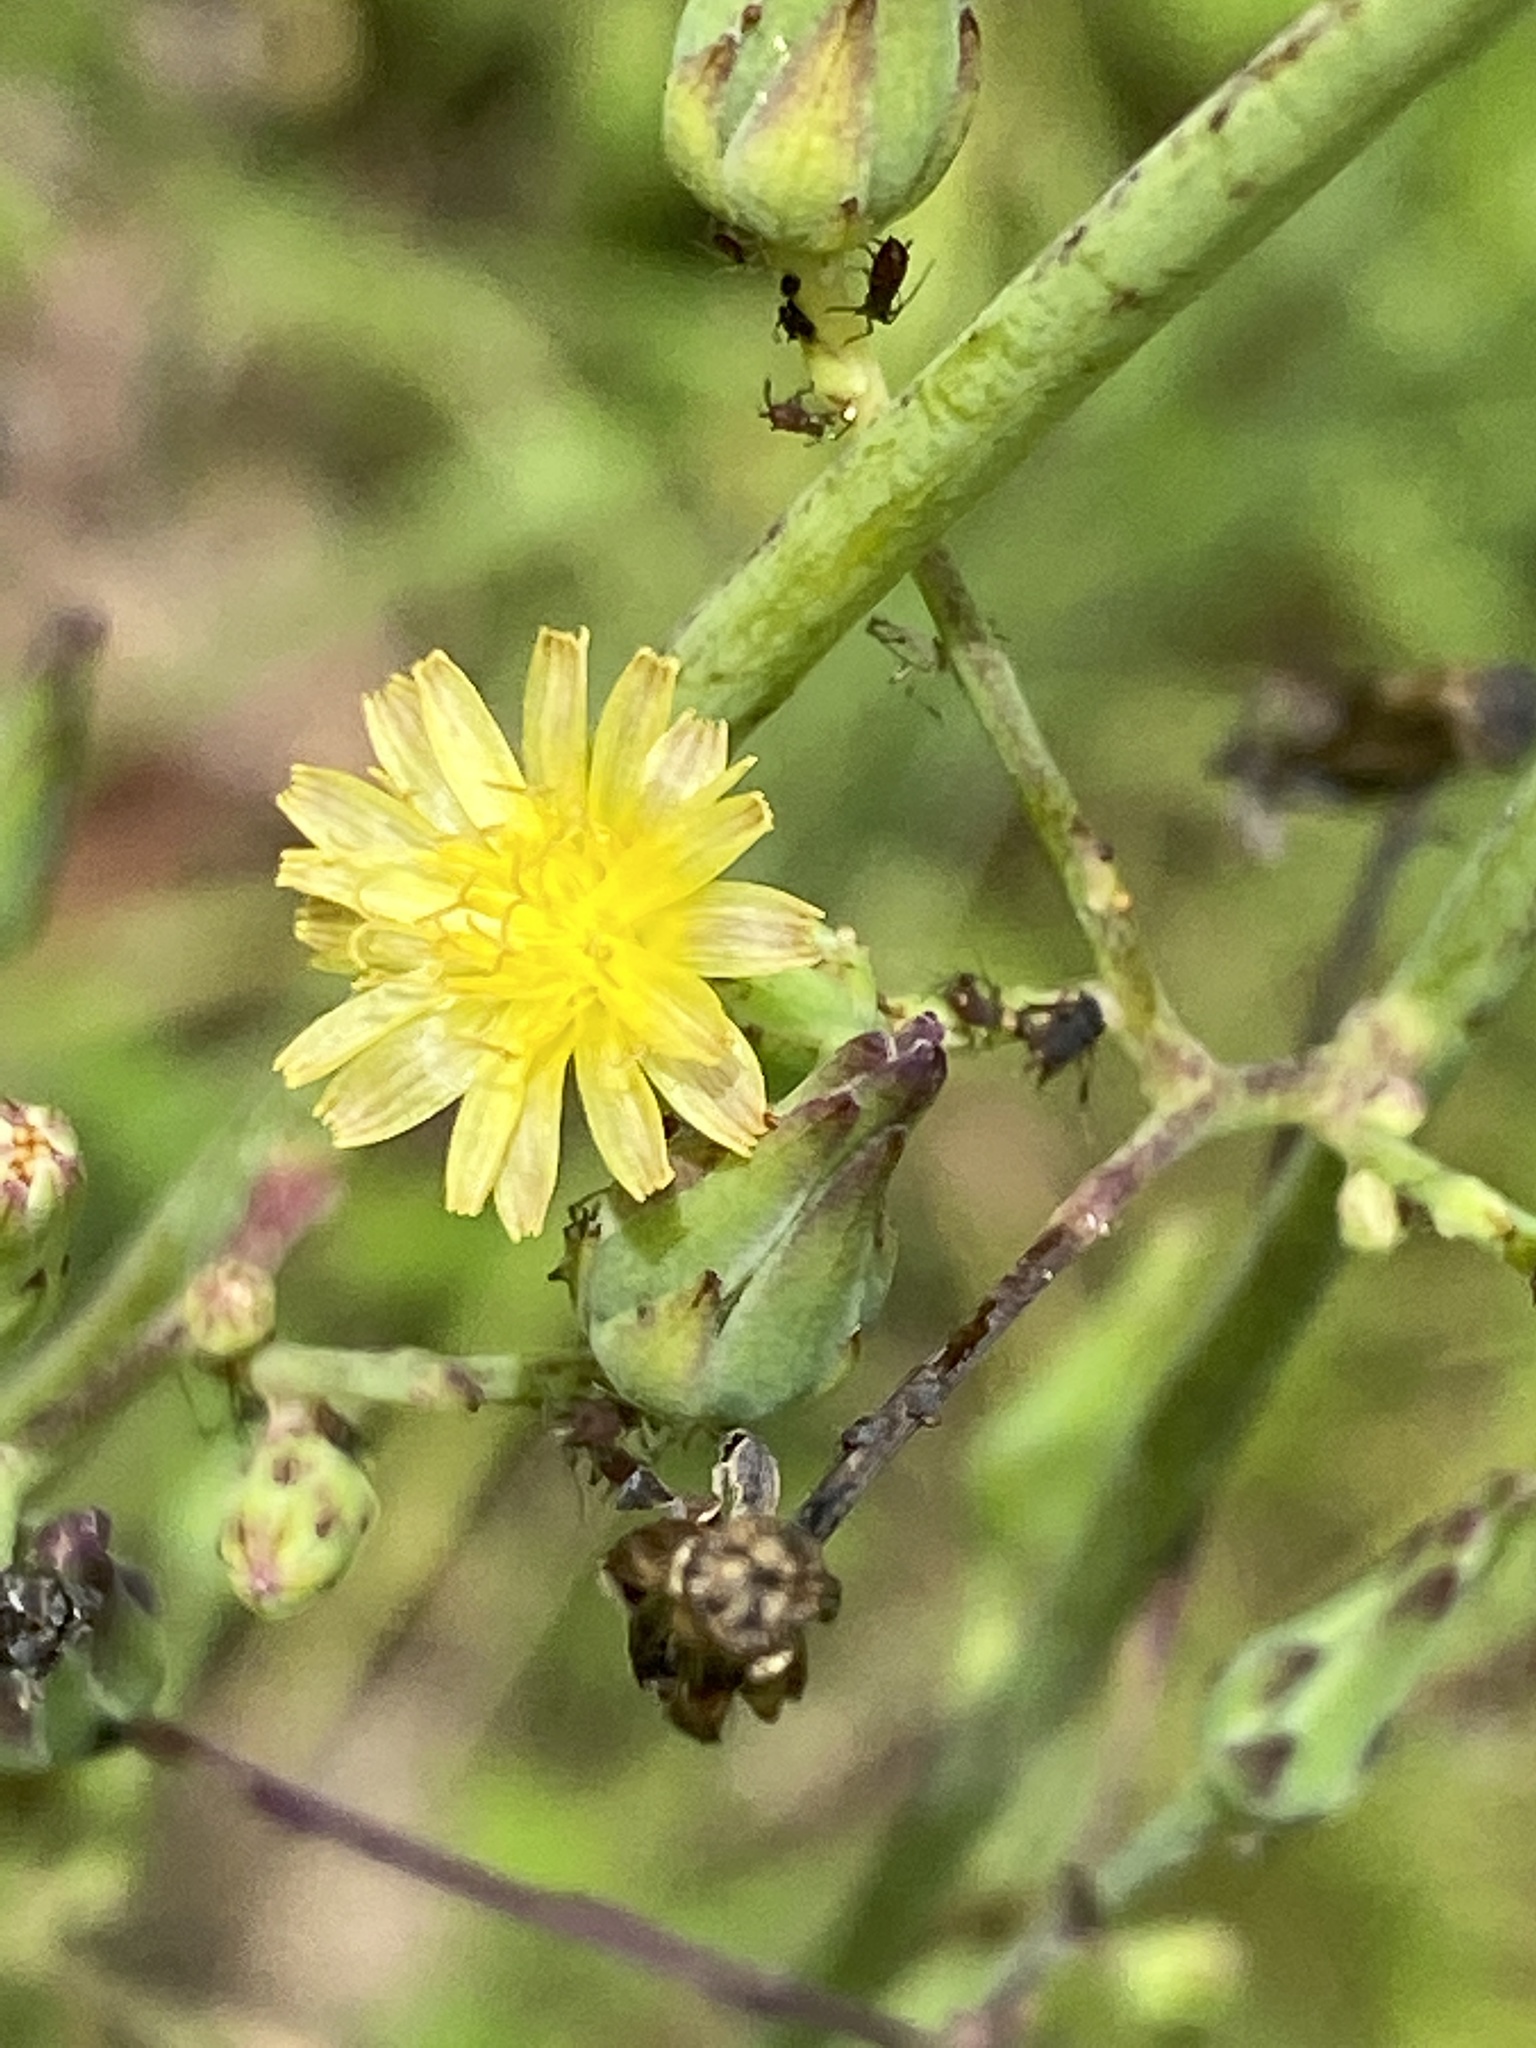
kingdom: Plantae
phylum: Tracheophyta
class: Magnoliopsida
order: Asterales
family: Asteraceae
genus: Lactuca
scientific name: Lactuca canadensis
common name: Canada lettuce
